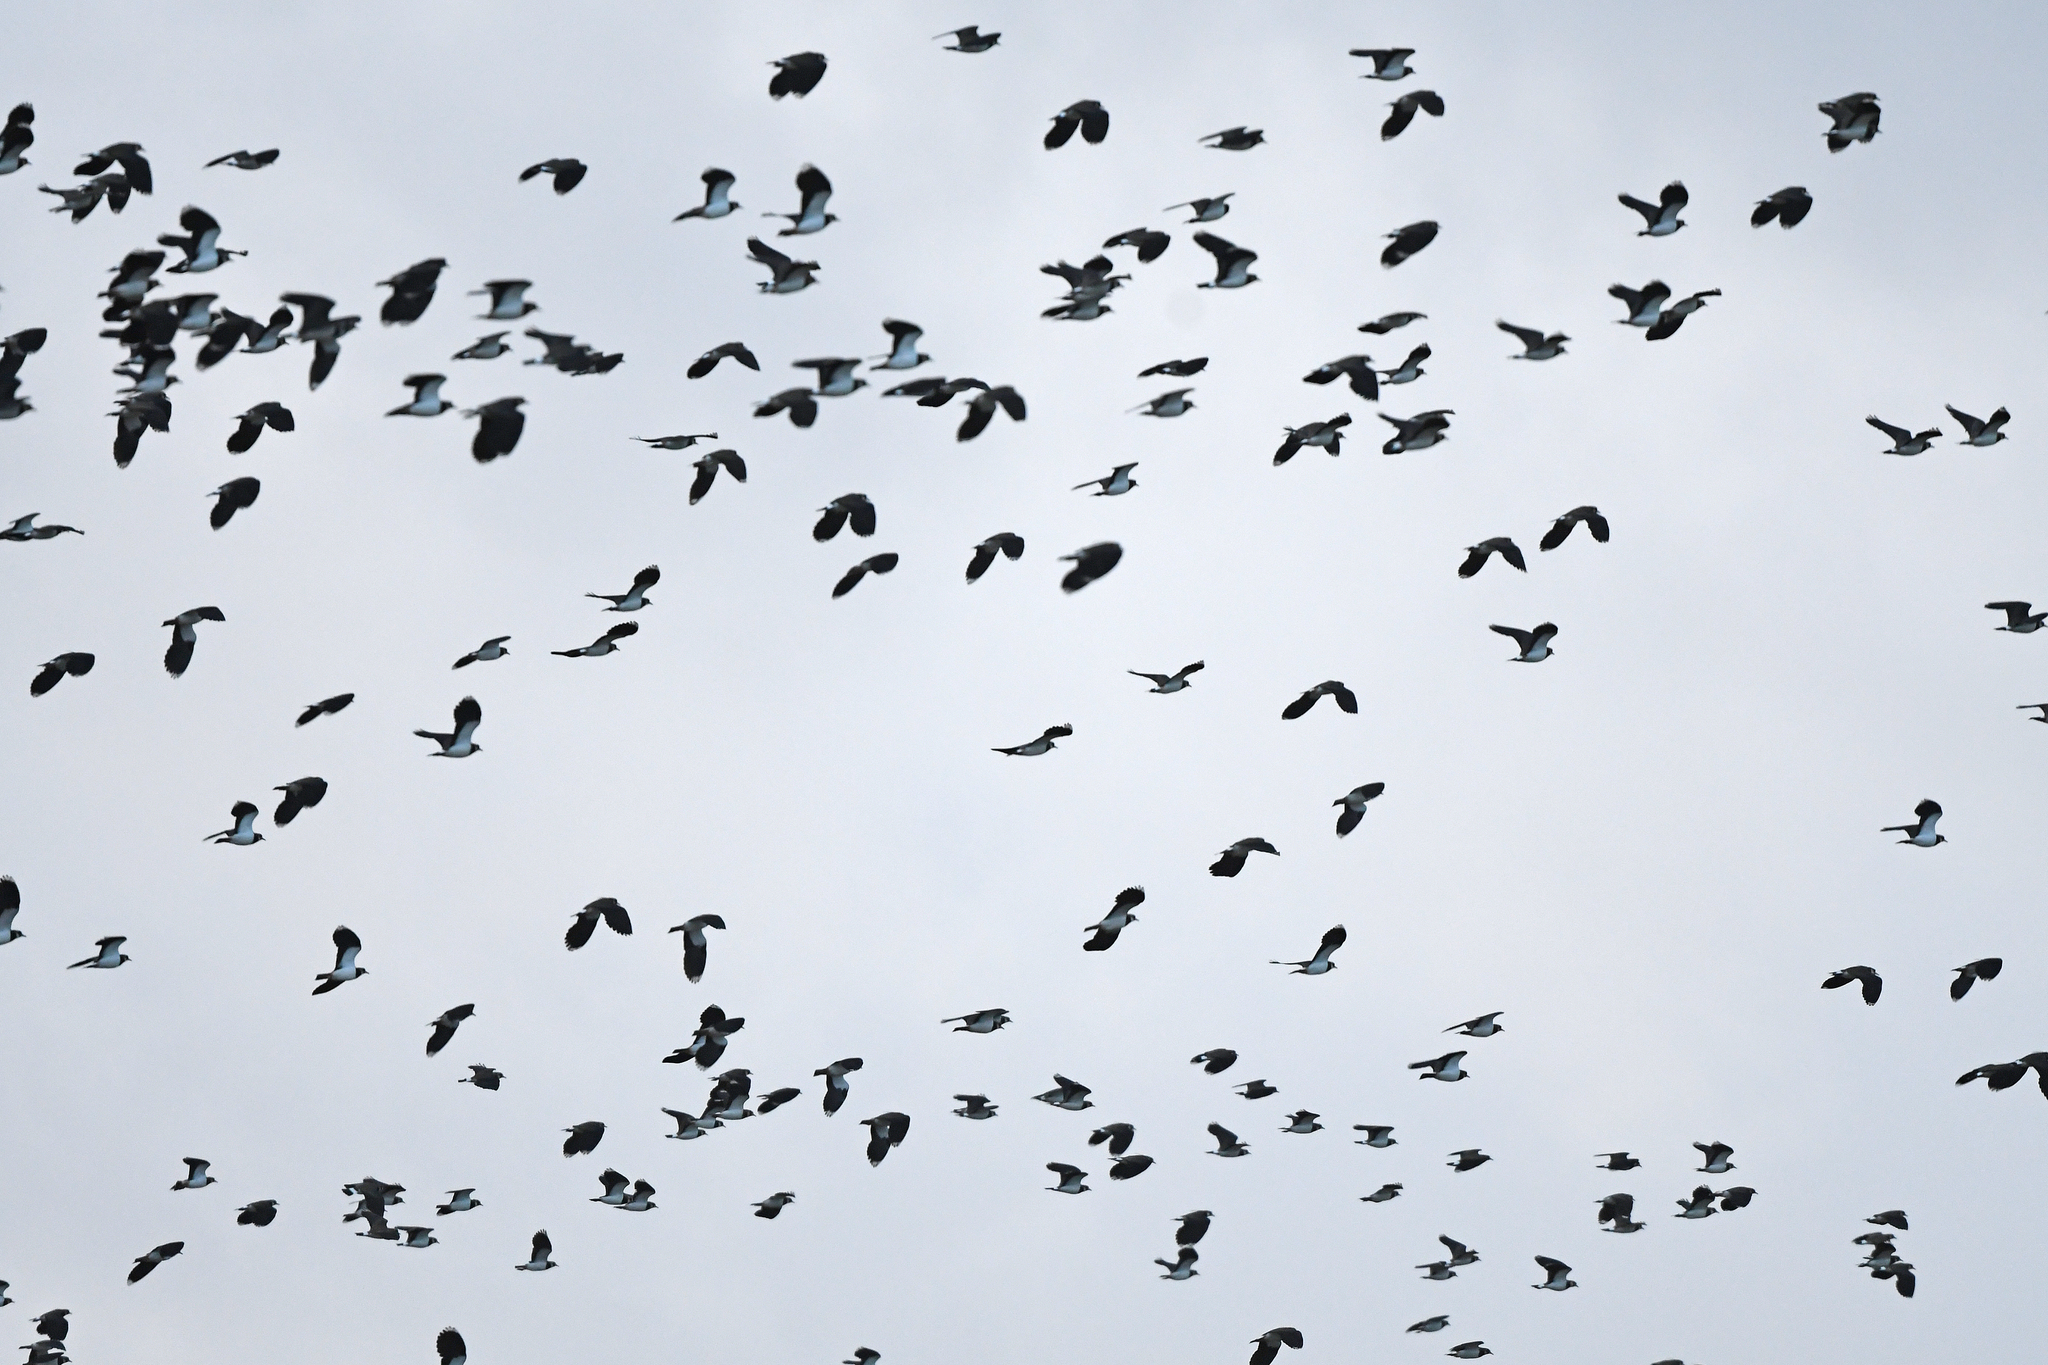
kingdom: Animalia
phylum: Chordata
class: Aves
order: Charadriiformes
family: Charadriidae
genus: Vanellus
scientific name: Vanellus vanellus
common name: Northern lapwing
